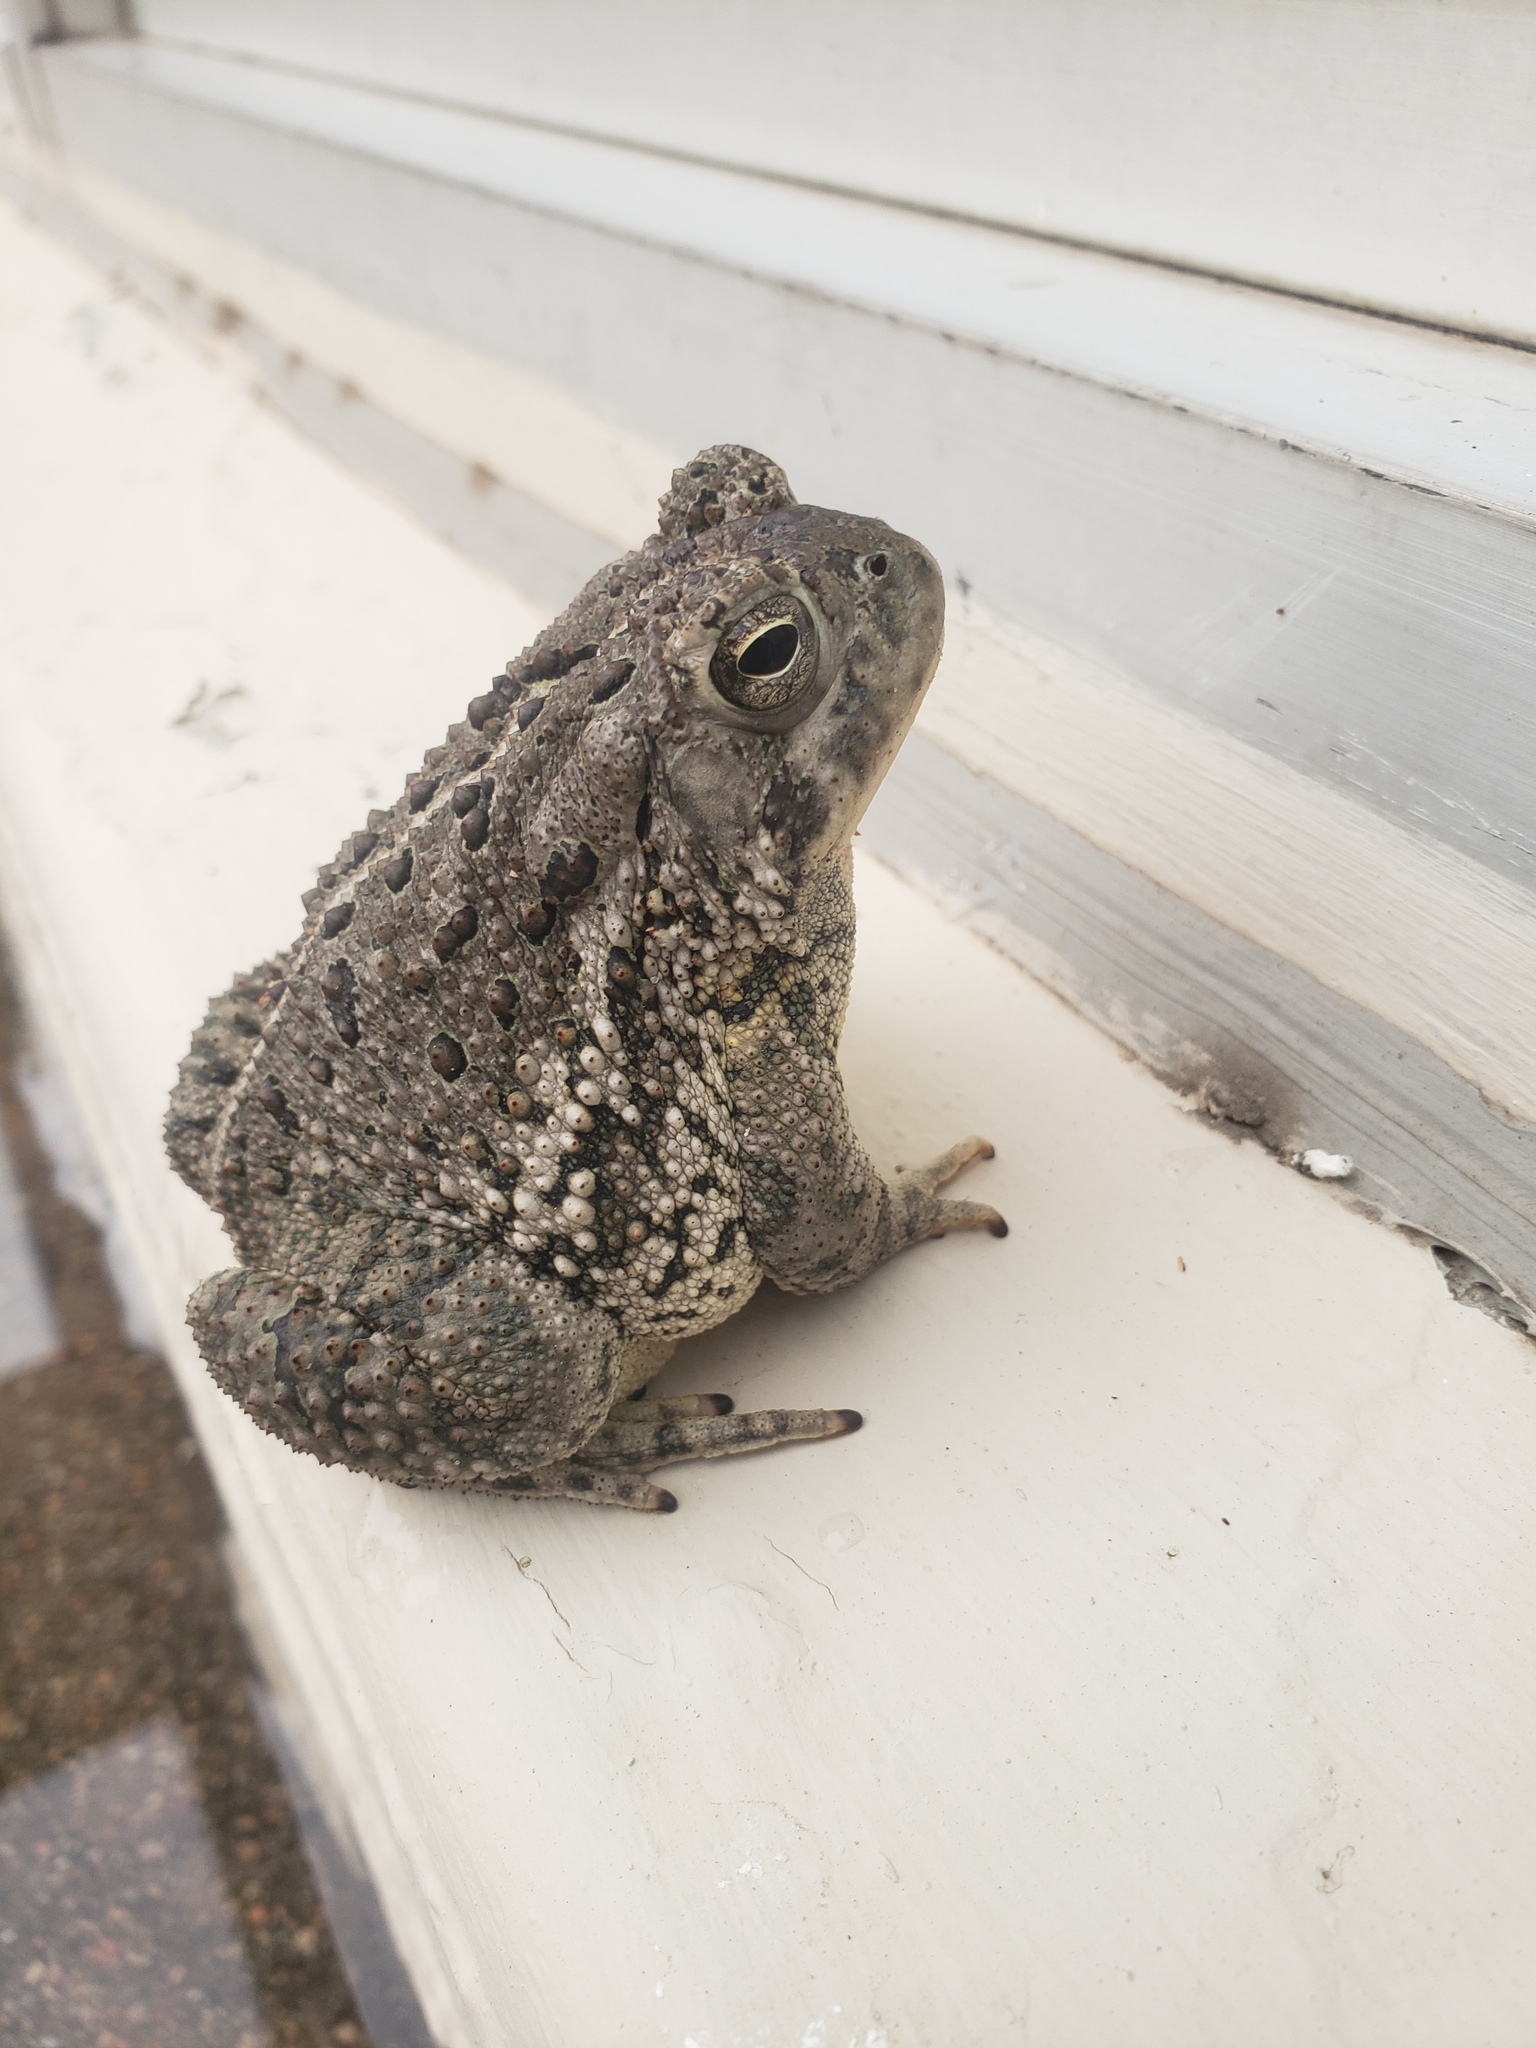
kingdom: Animalia
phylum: Chordata
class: Amphibia
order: Anura
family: Bufonidae
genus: Anaxyrus
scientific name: Anaxyrus woodhousii
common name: Woodhouse's toad
